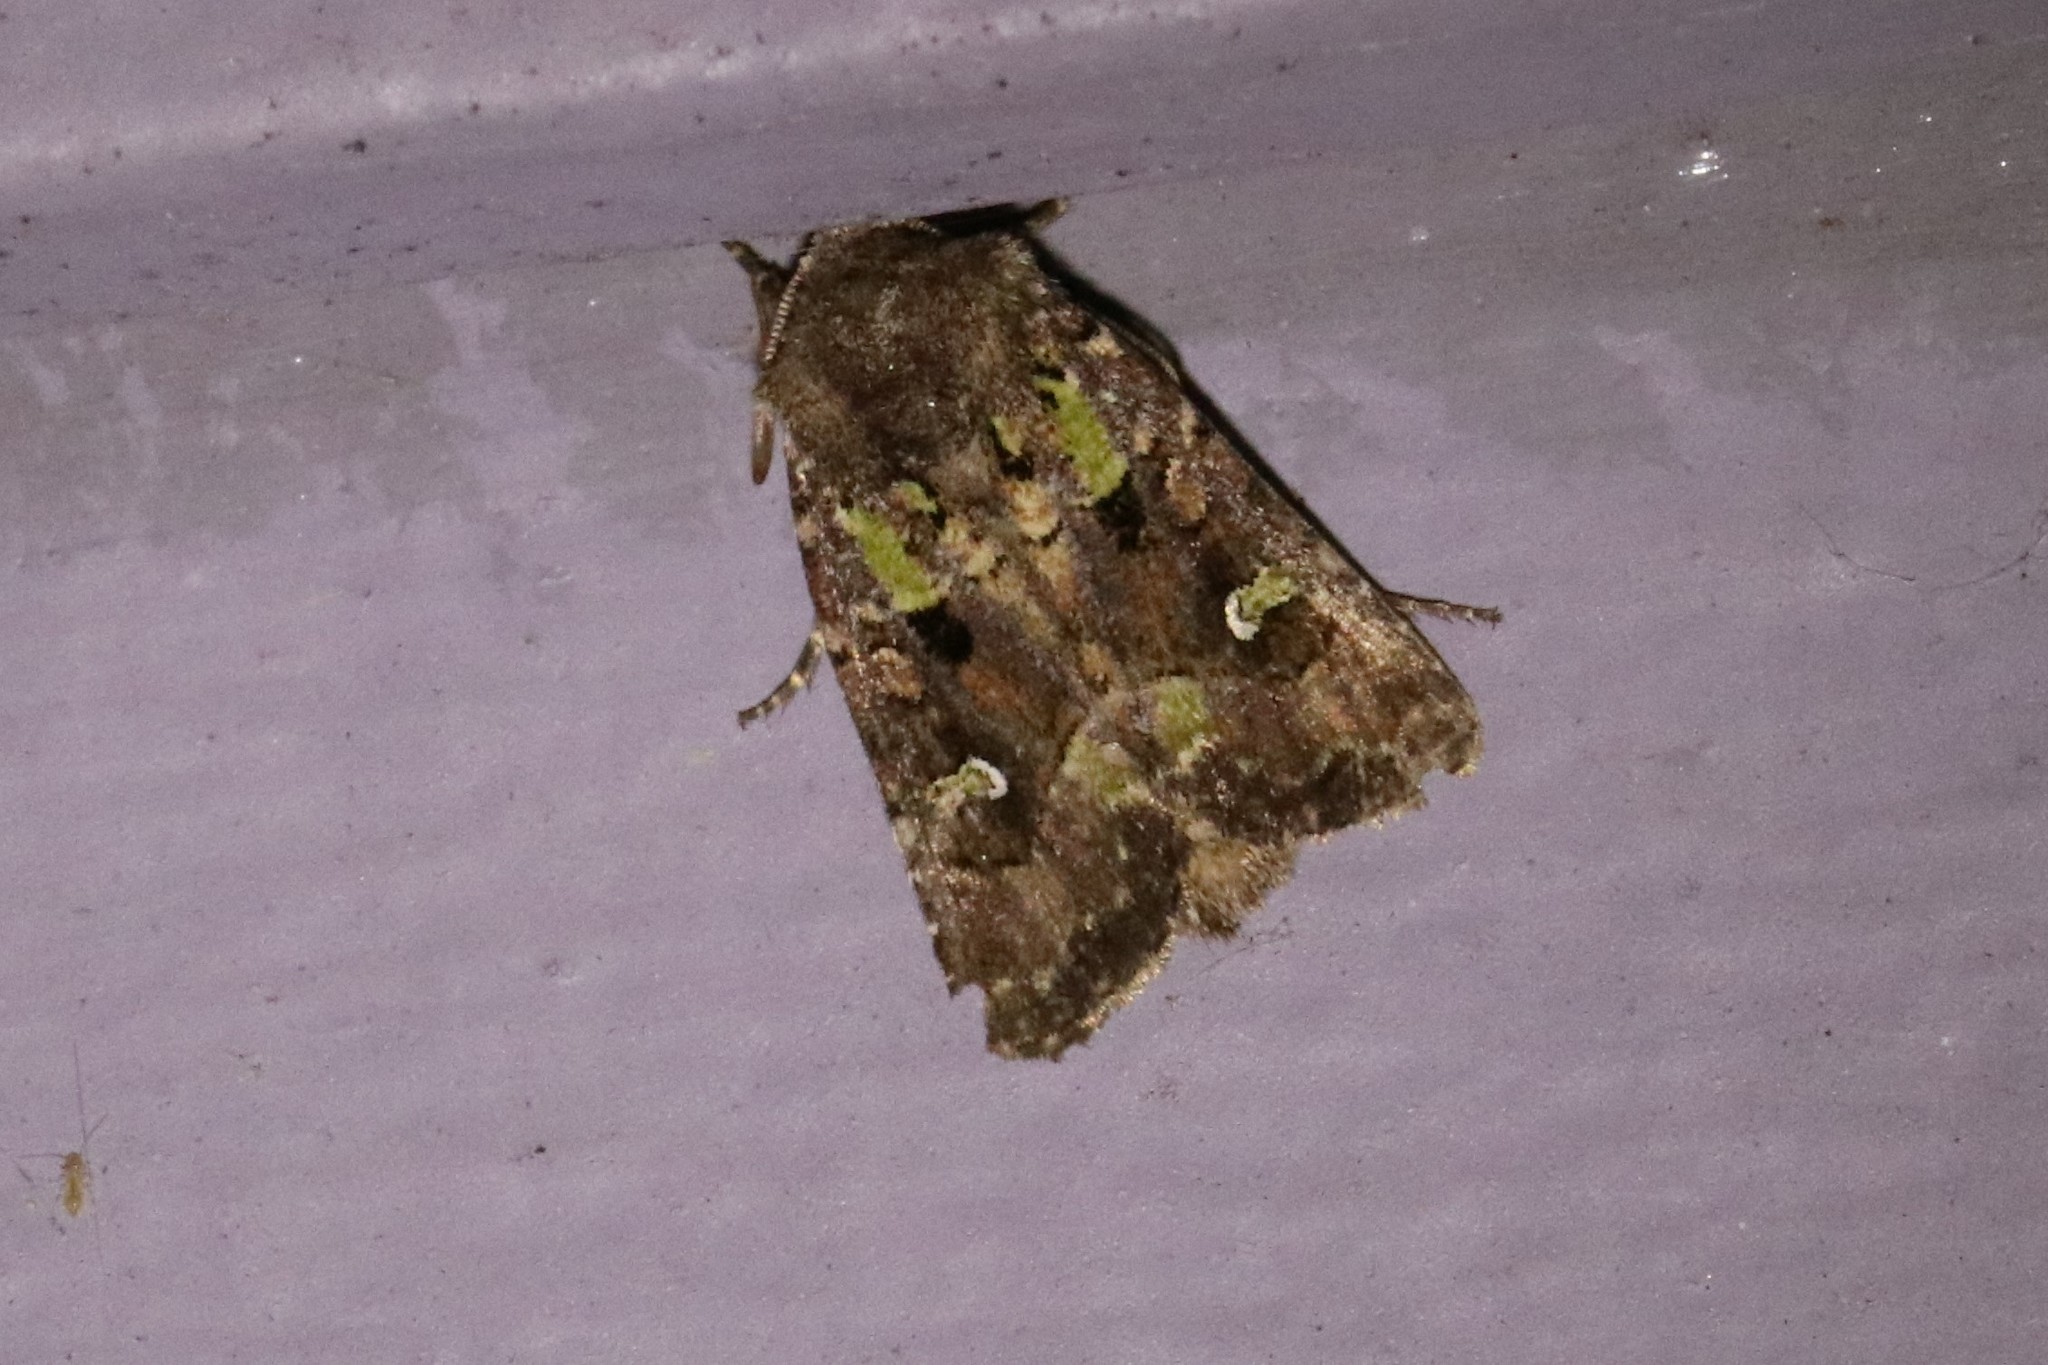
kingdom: Animalia
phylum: Arthropoda
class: Insecta
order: Lepidoptera
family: Noctuidae
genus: Lacinipolia
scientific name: Lacinipolia renigera
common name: Kidney-spotted minor
